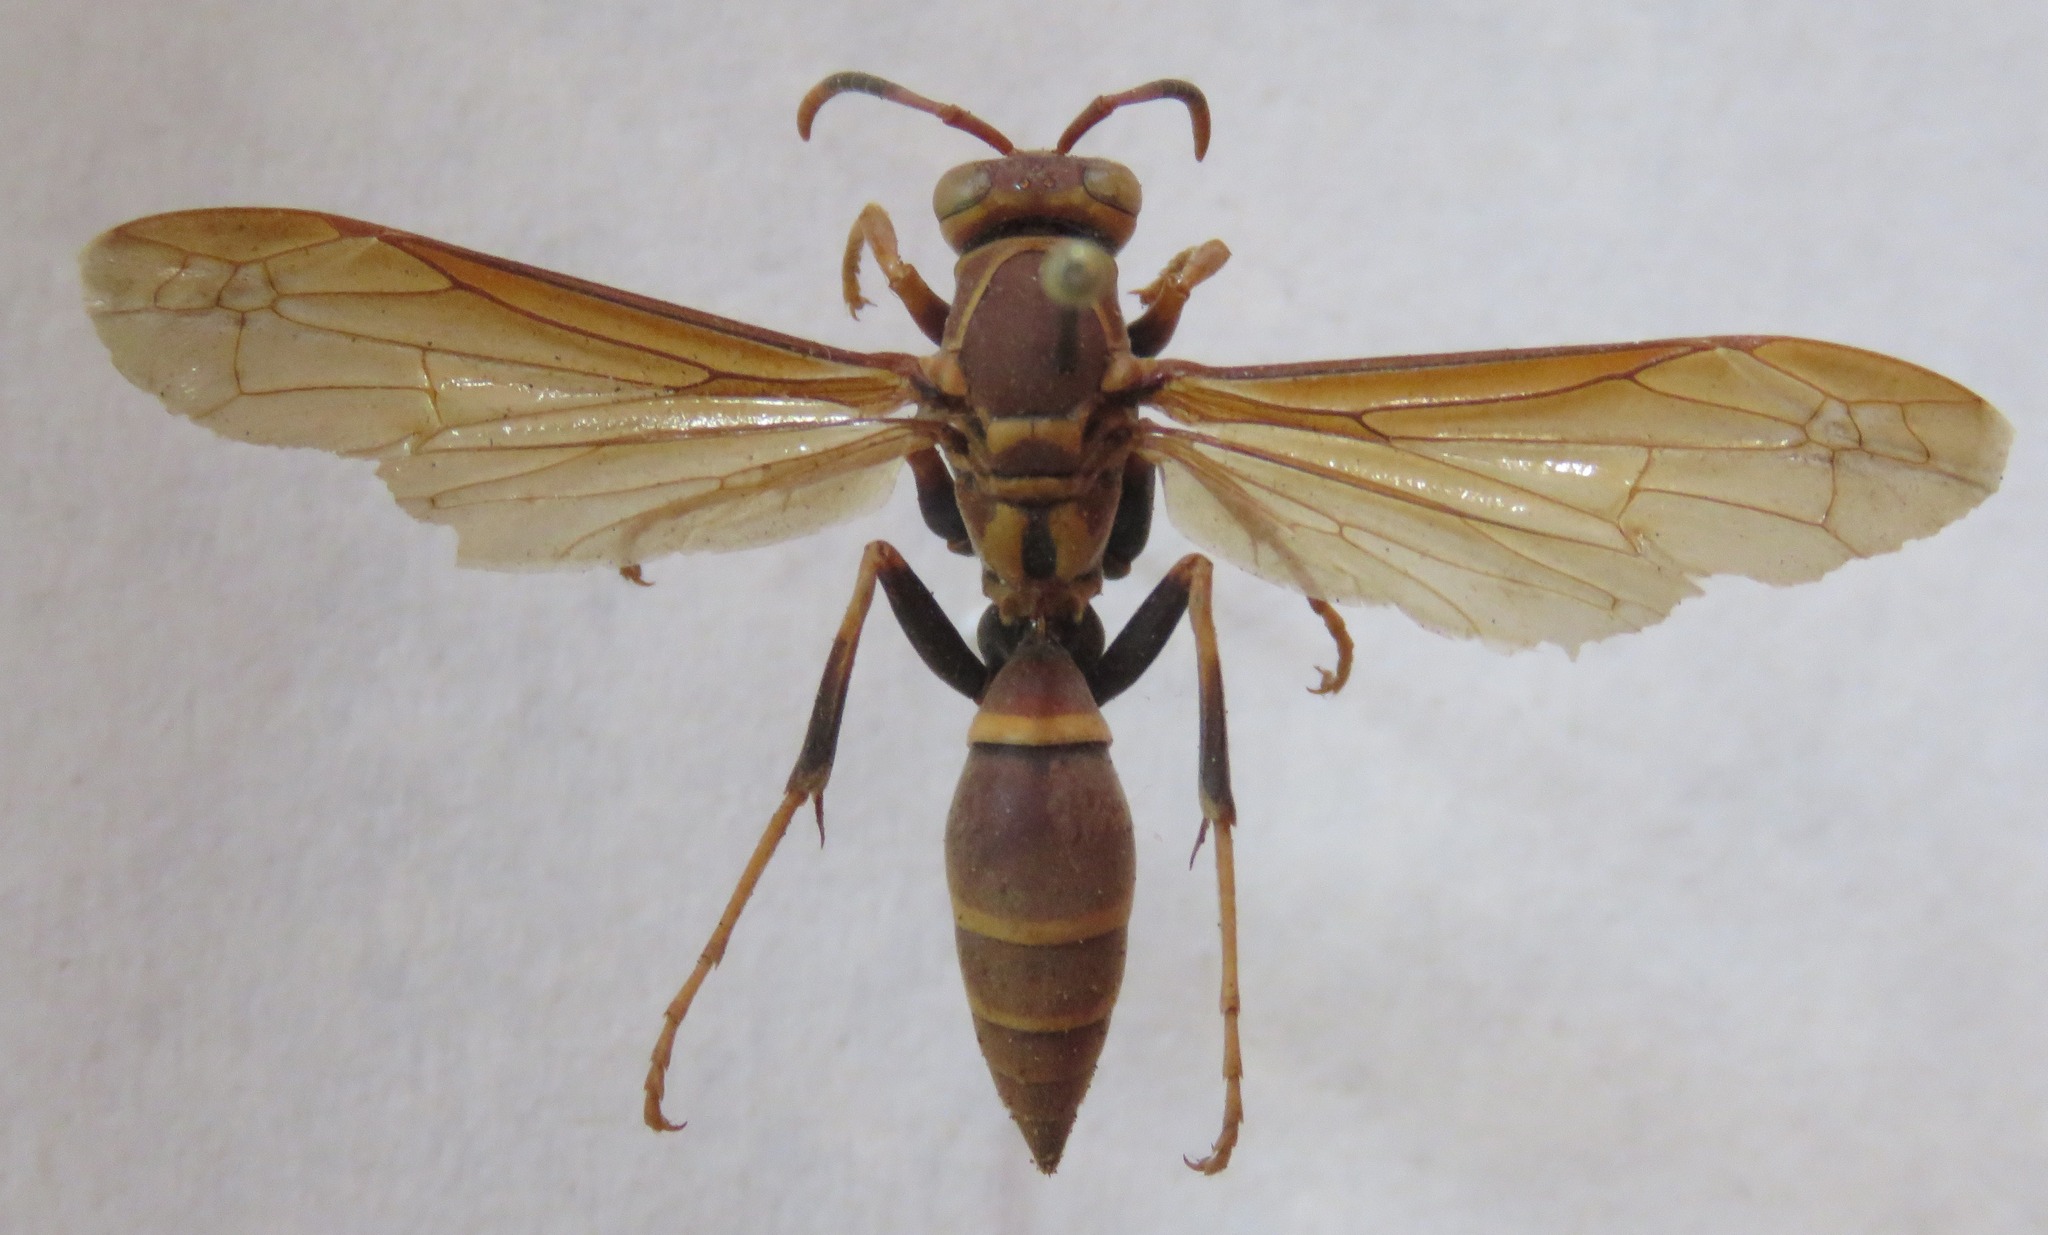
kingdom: Animalia
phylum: Arthropoda
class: Insecta
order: Hymenoptera
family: Eumenidae
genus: Polistes
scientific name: Polistes instabilis
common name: Unstable paper wasp
